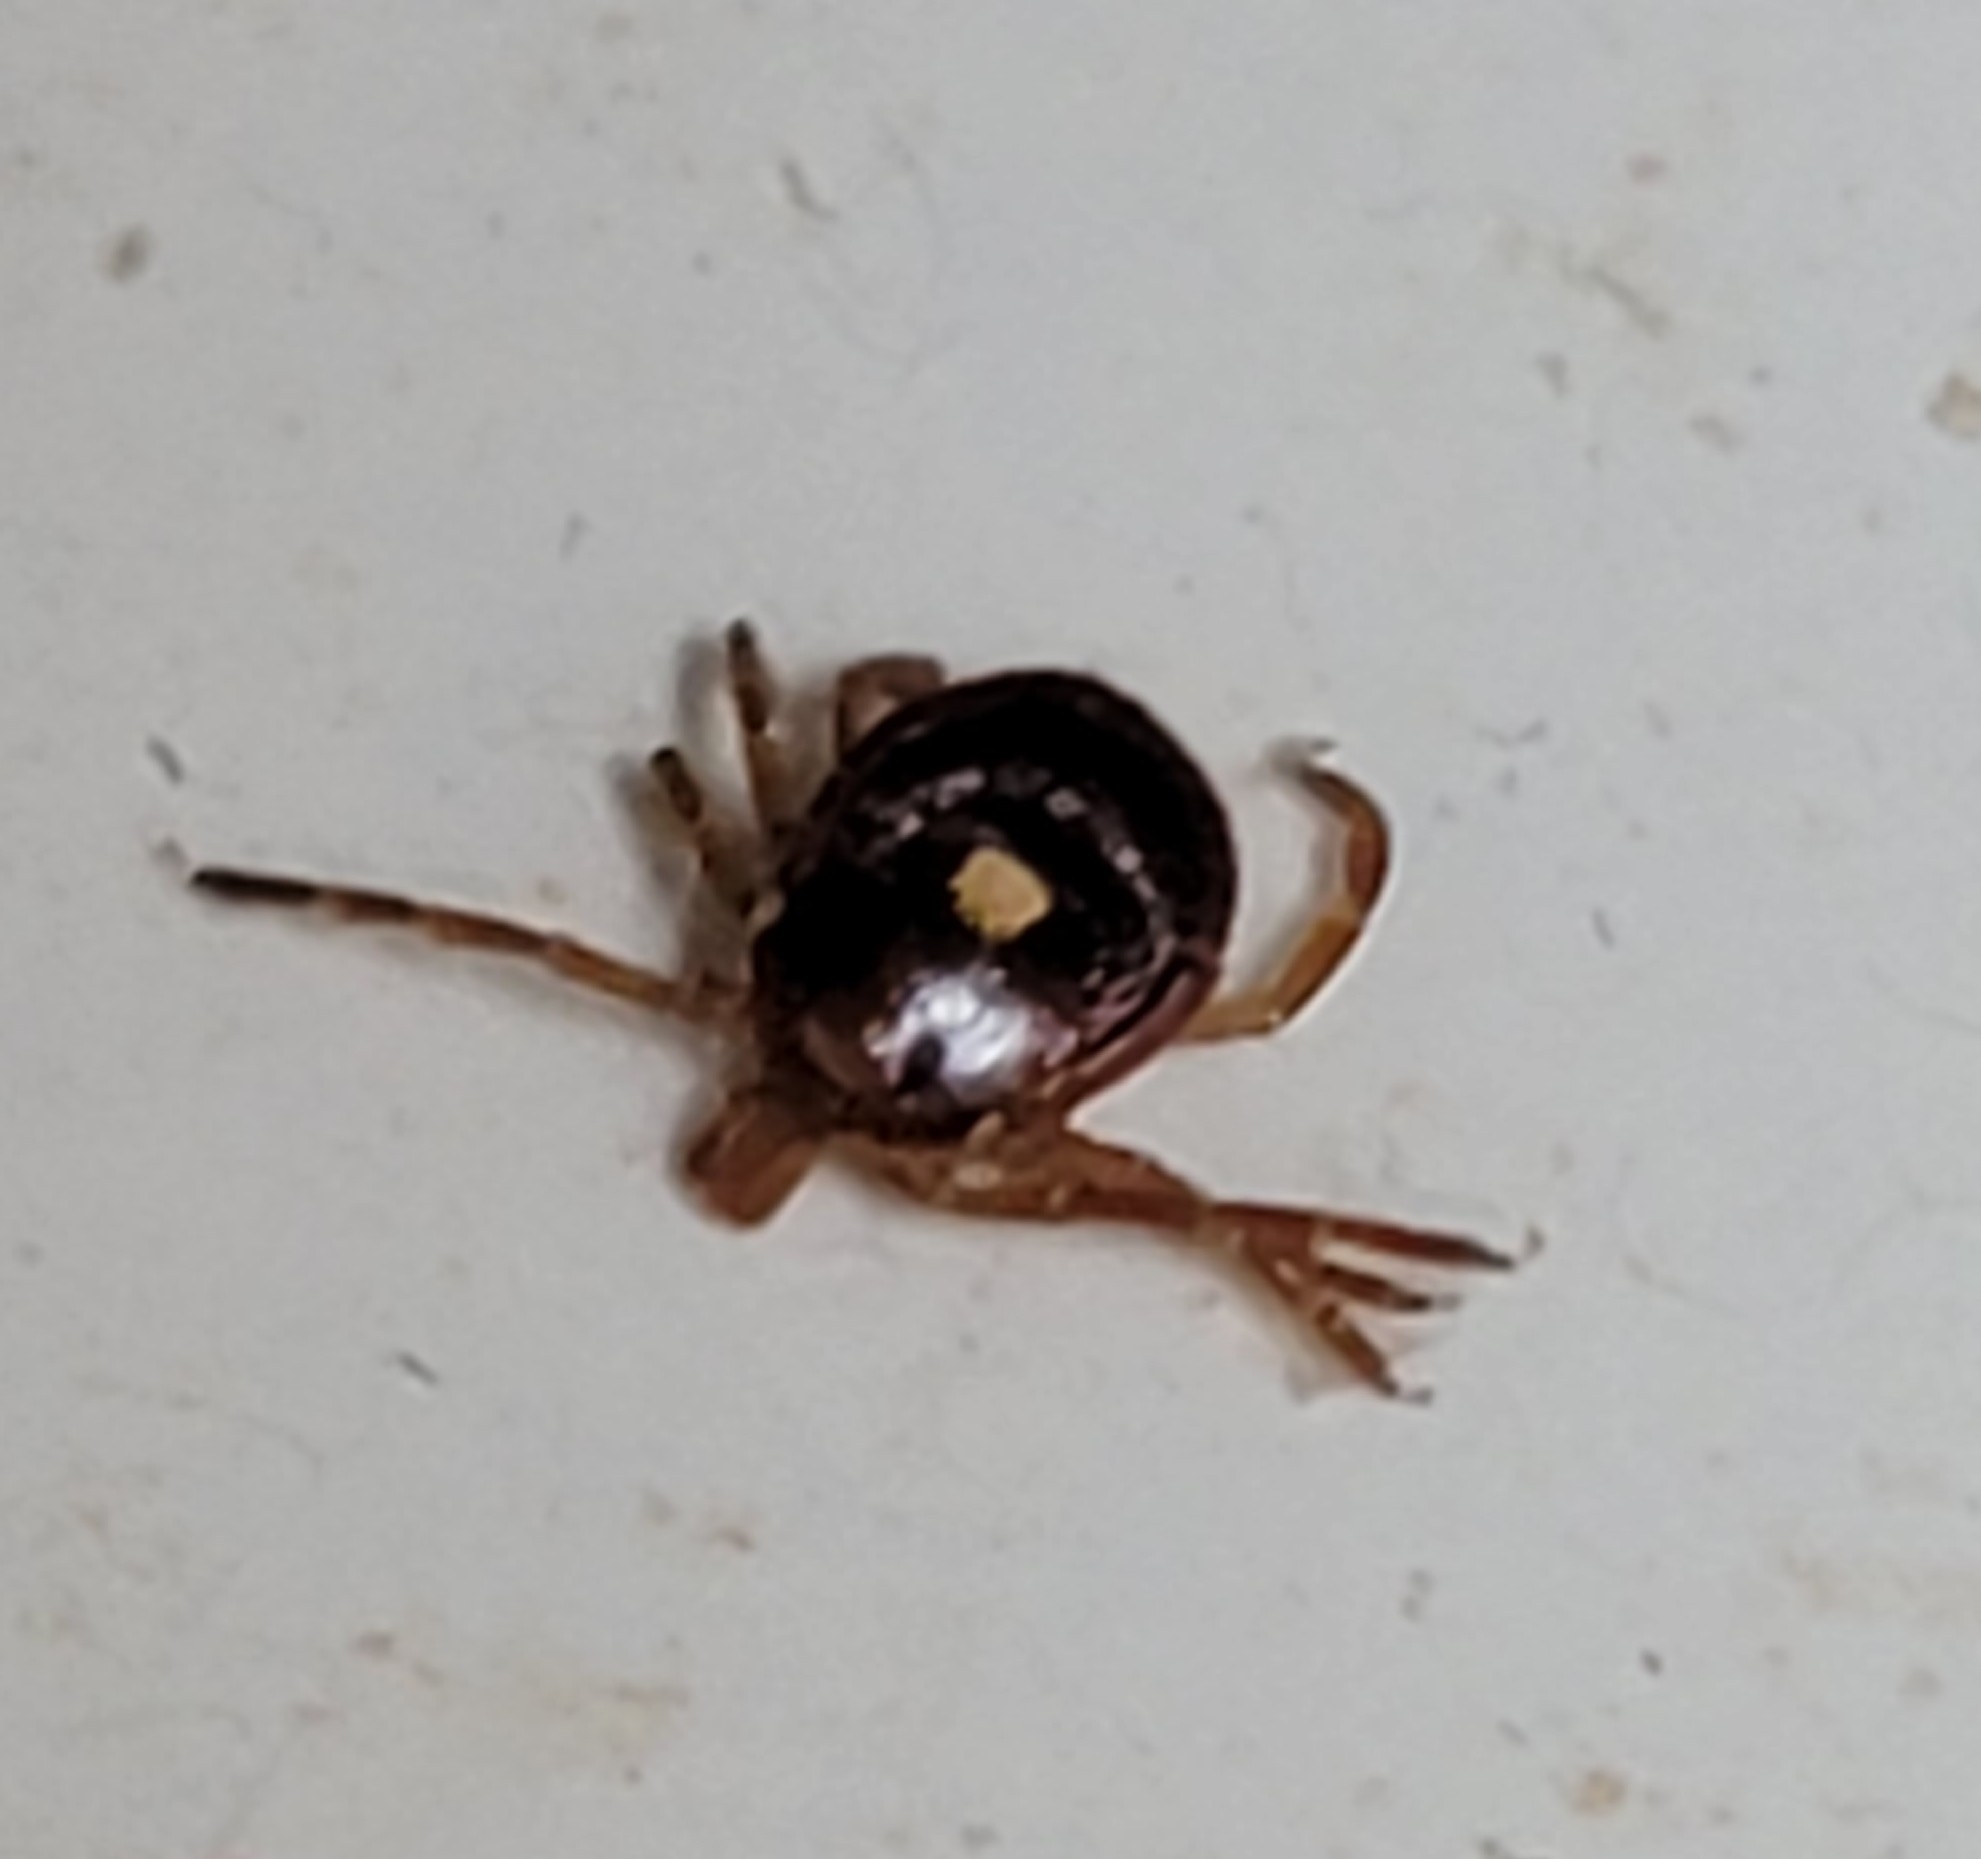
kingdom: Animalia
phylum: Arthropoda
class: Arachnida
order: Ixodida
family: Ixodidae
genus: Amblyomma
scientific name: Amblyomma americanum
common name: Lone star tick
